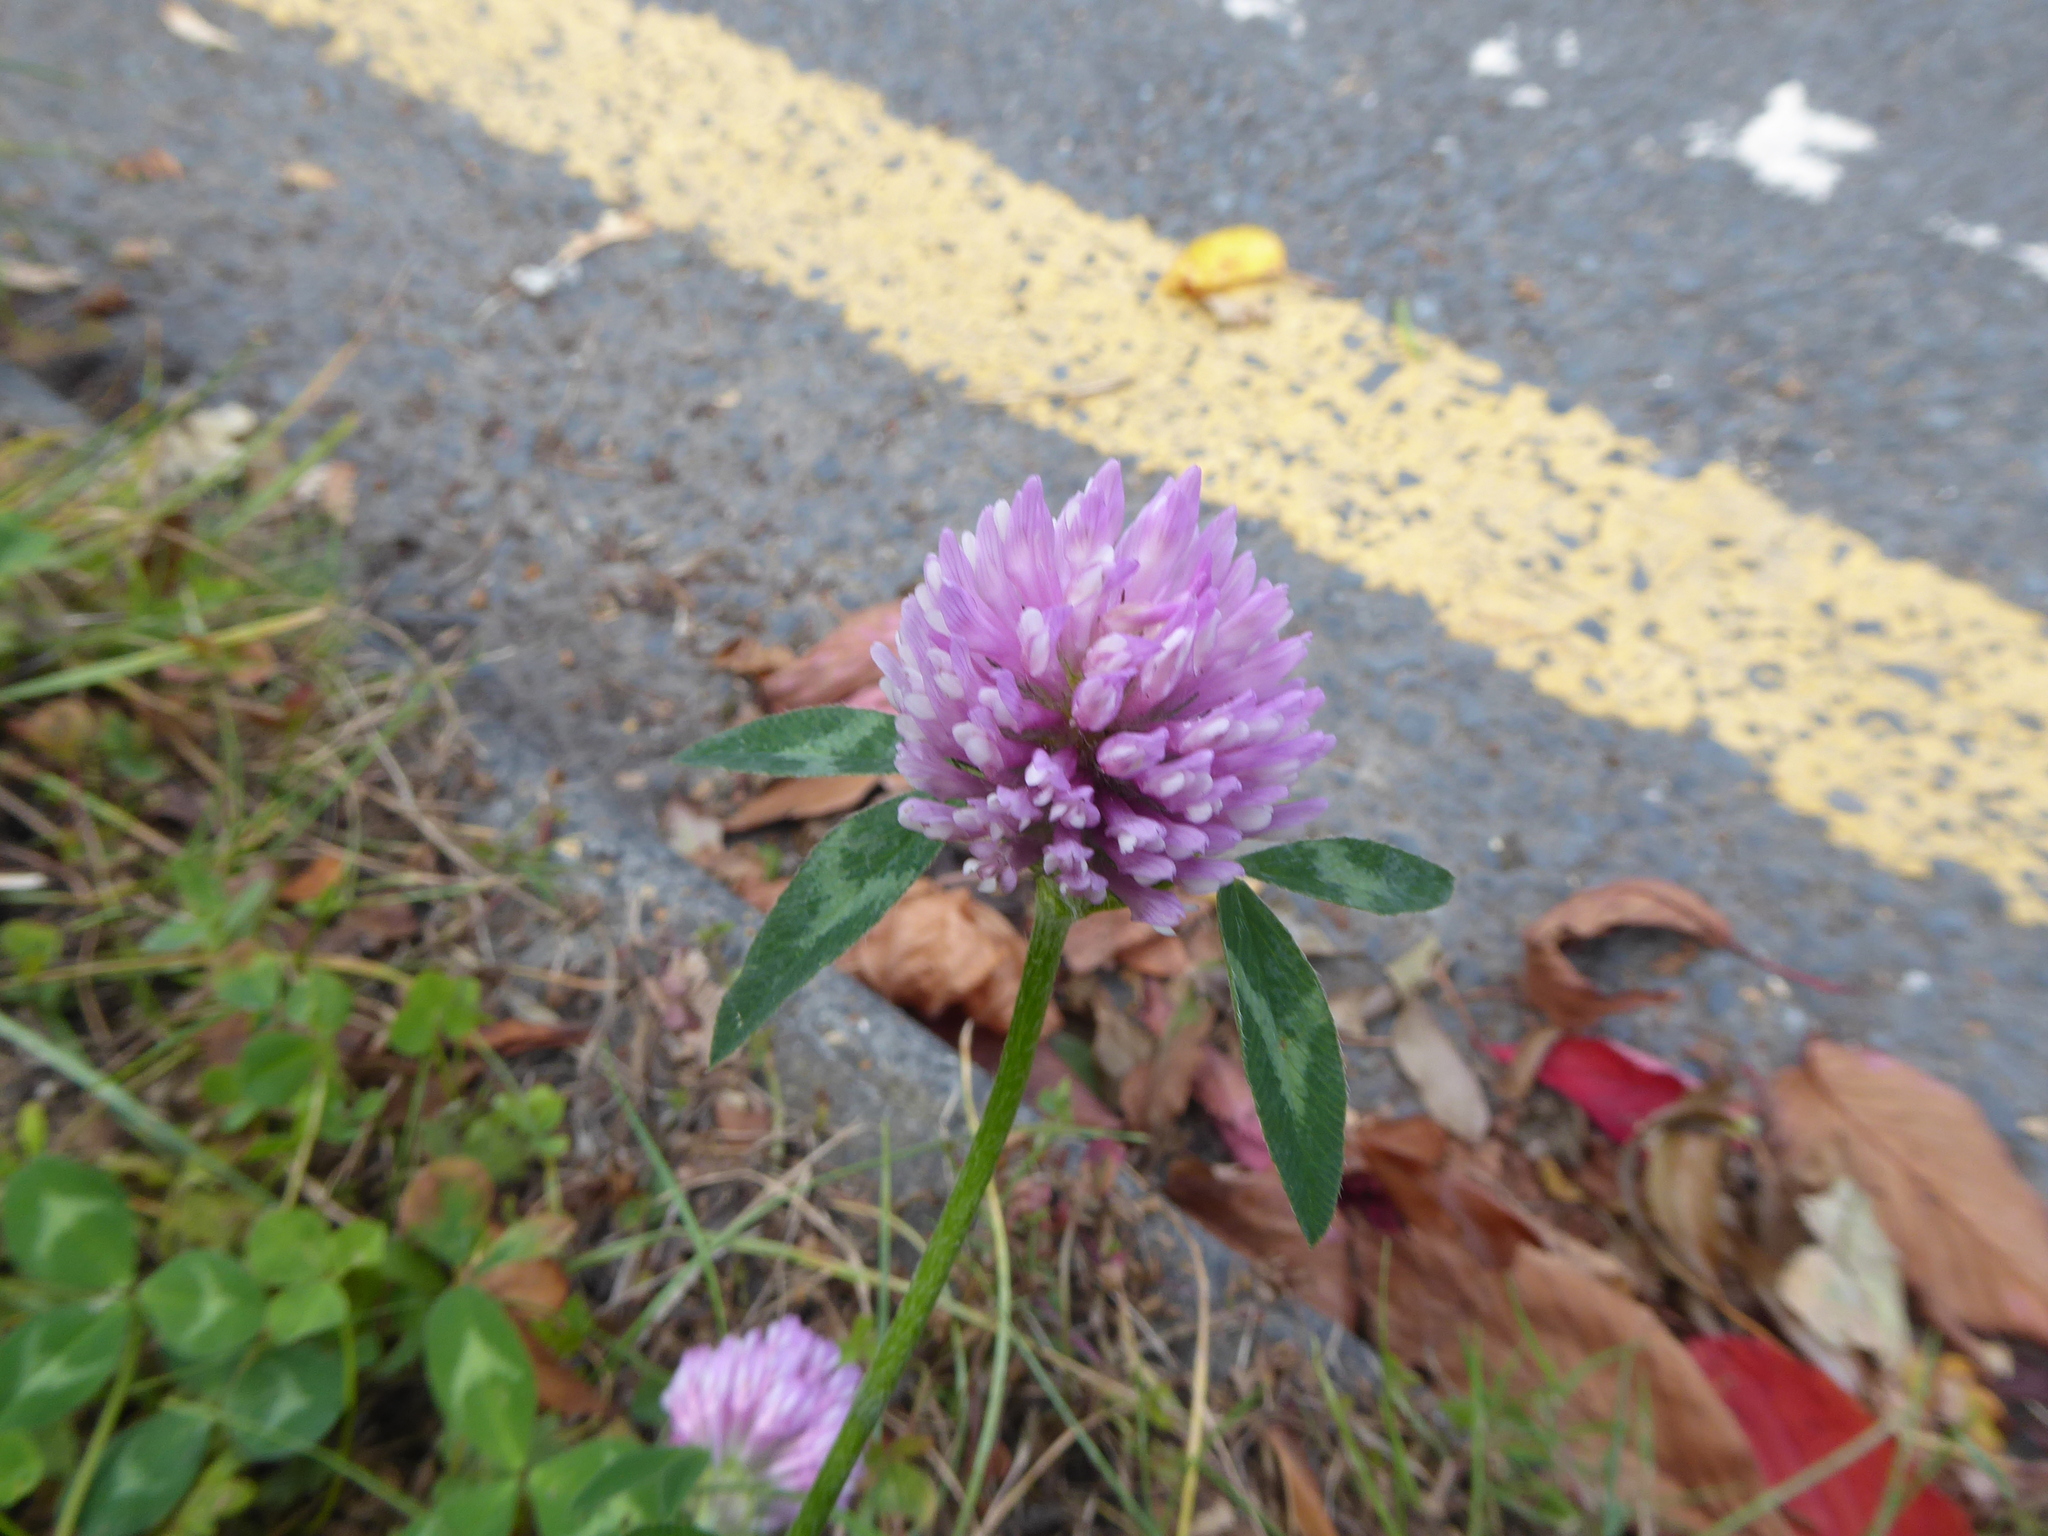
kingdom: Plantae
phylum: Tracheophyta
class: Magnoliopsida
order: Fabales
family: Fabaceae
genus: Trifolium
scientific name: Trifolium pratense
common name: Red clover
